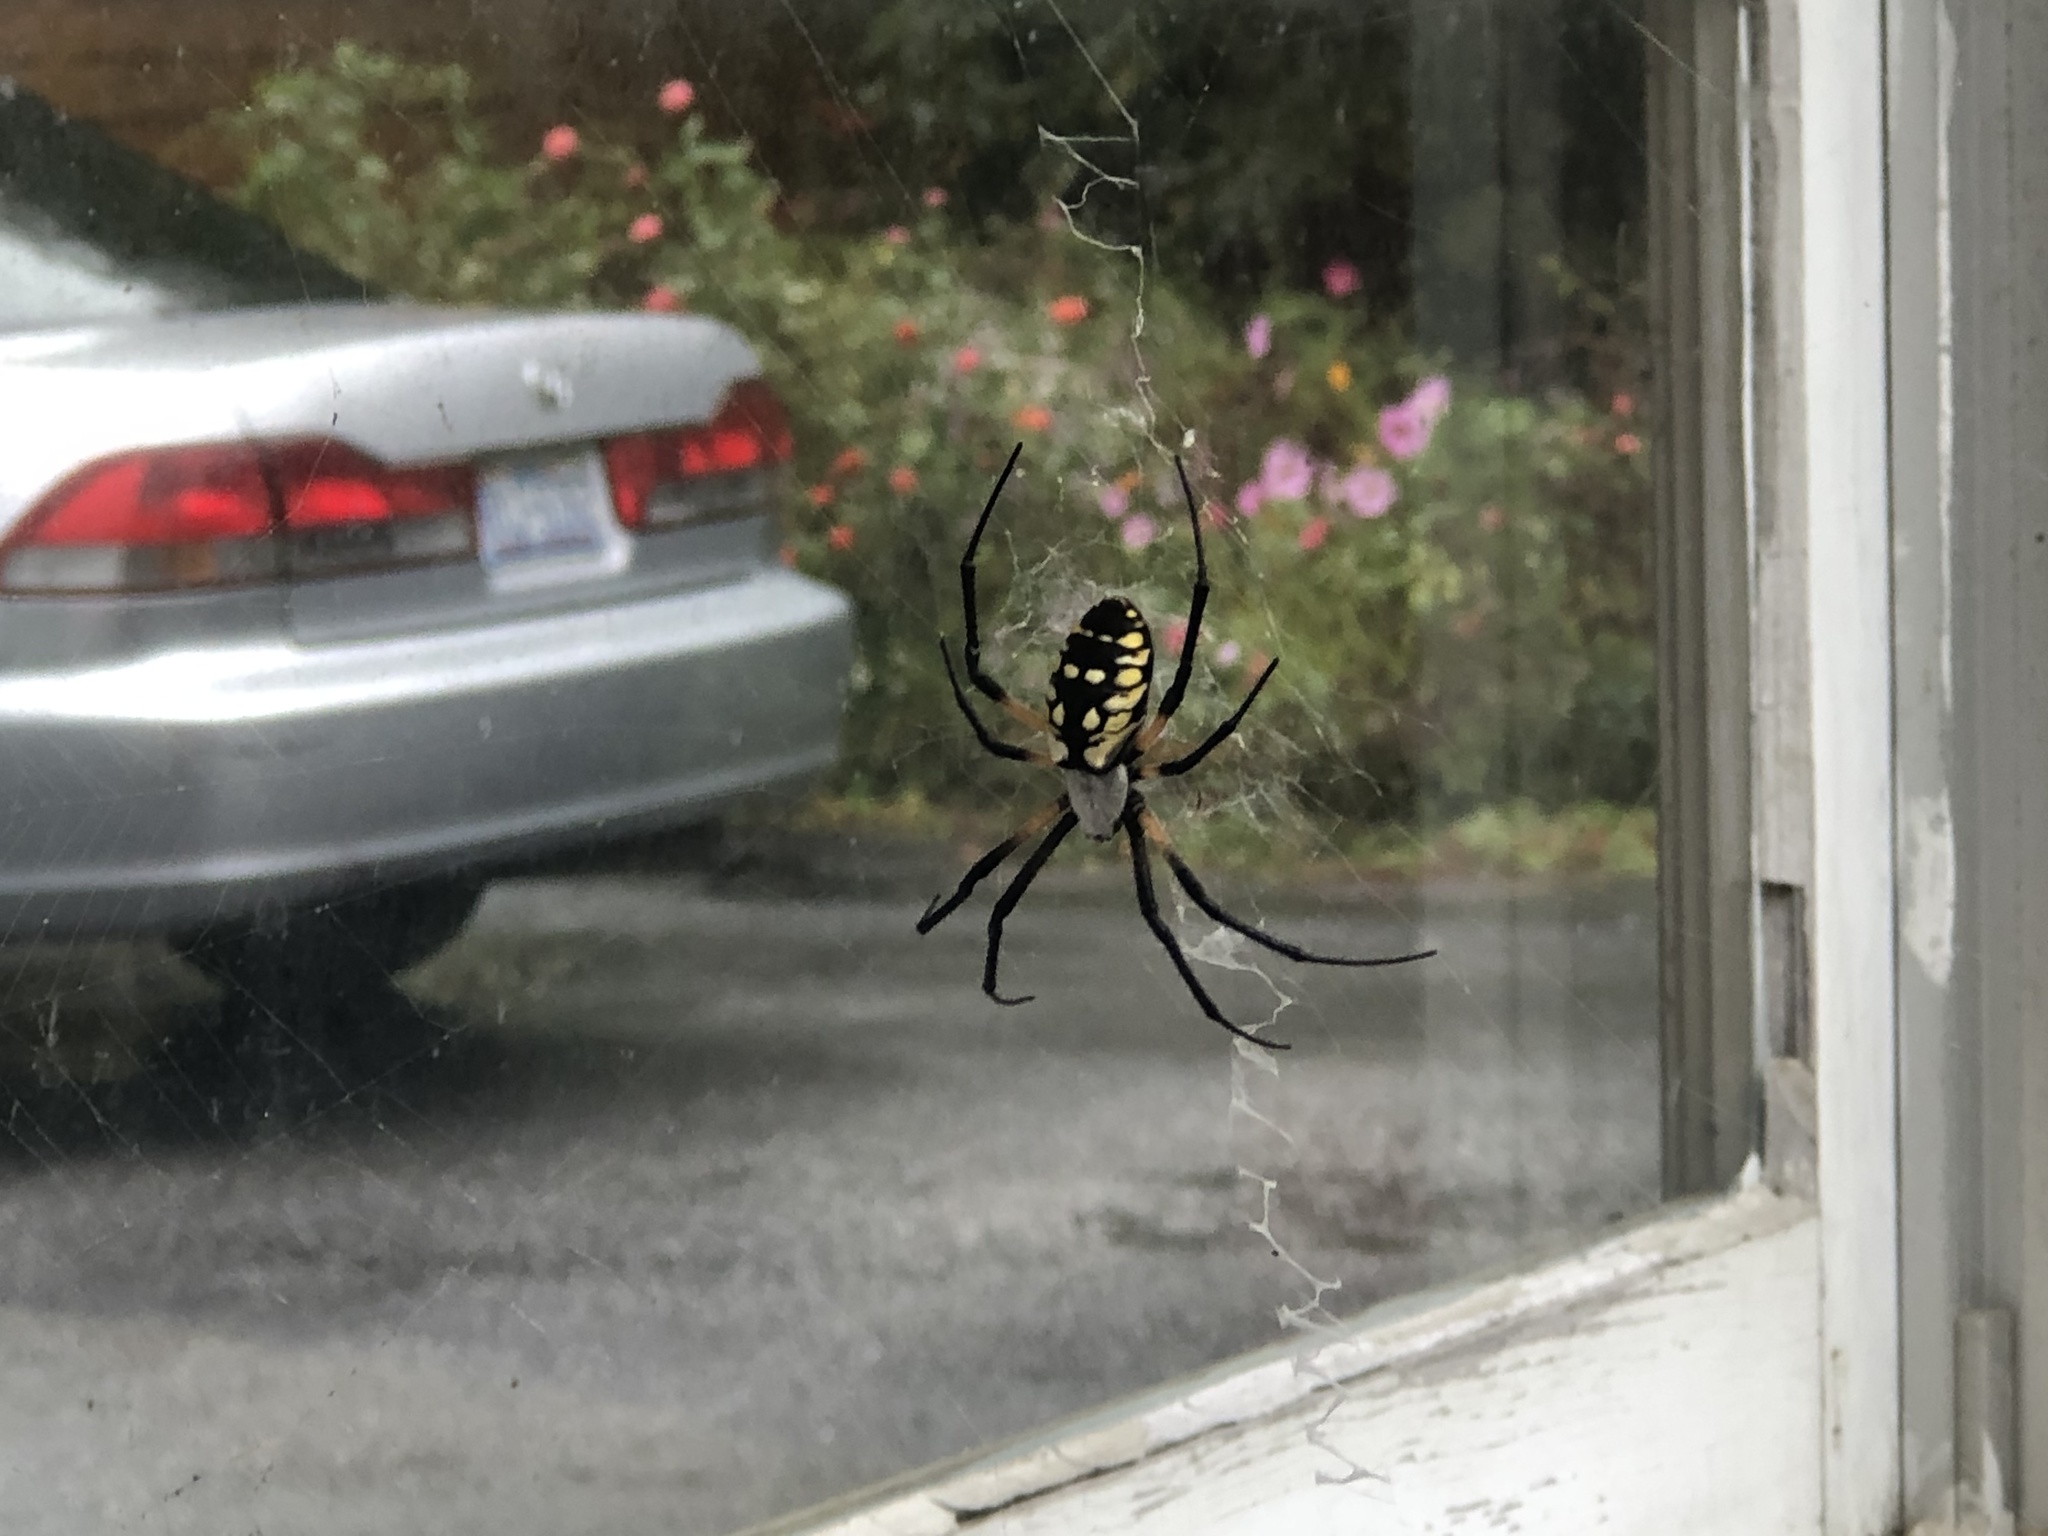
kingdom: Animalia
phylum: Arthropoda
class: Arachnida
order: Araneae
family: Araneidae
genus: Argiope
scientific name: Argiope aurantia
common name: Orb weavers
